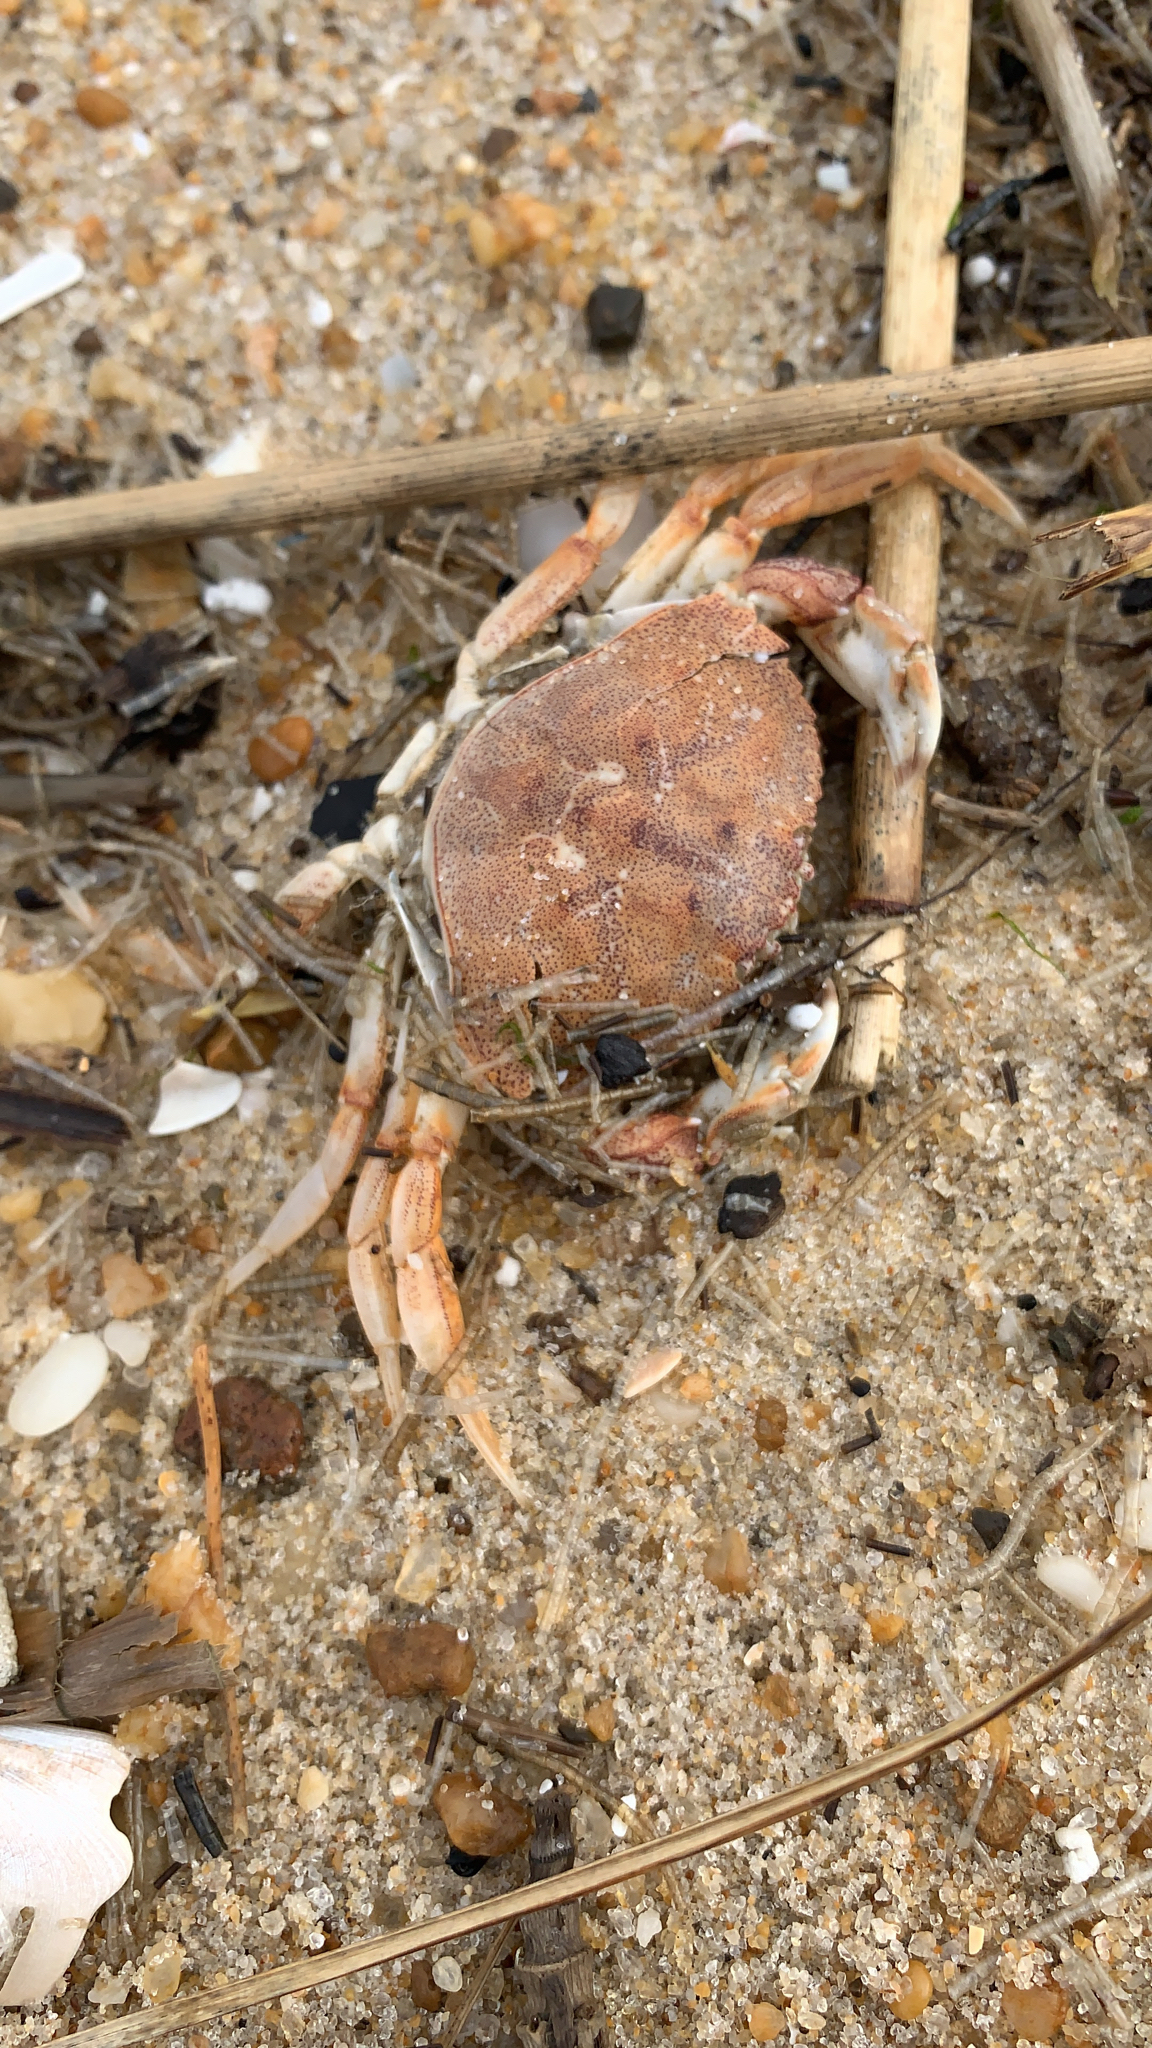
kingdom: Animalia
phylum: Arthropoda
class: Malacostraca
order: Decapoda
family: Cancridae
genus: Cancer
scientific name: Cancer irroratus
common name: Atlantic rock crab
